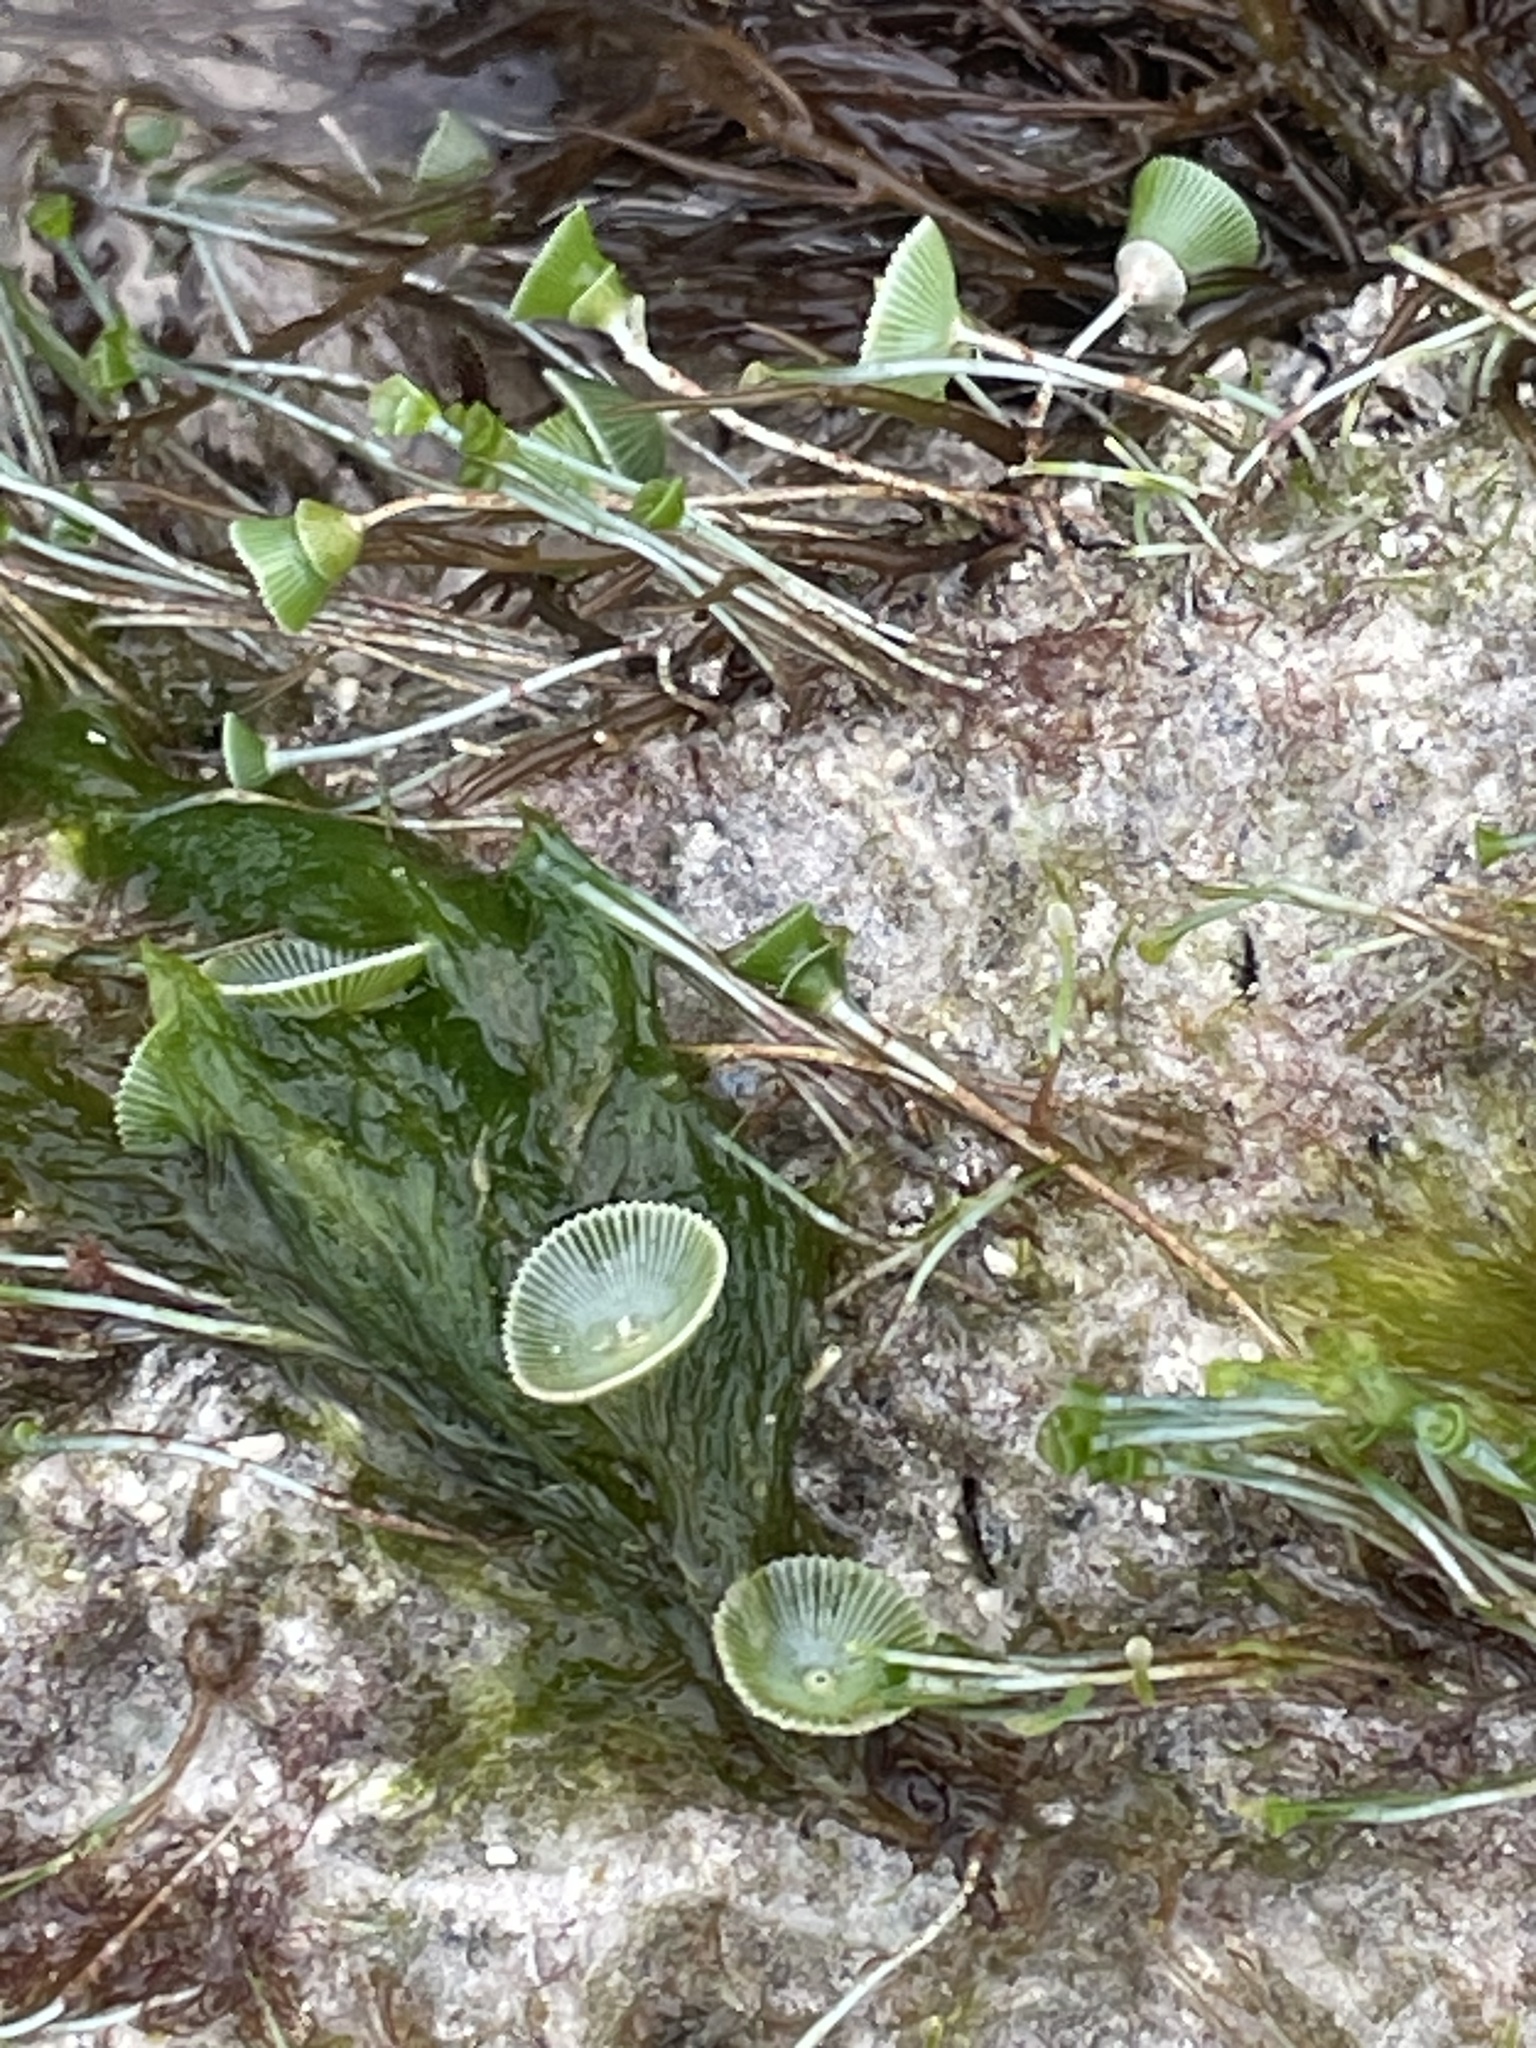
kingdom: Plantae
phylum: Chlorophyta
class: Ulvophyceae
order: Dasycladales
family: Polyphysaceae
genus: Acetabularia
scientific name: Acetabularia acetabulum
